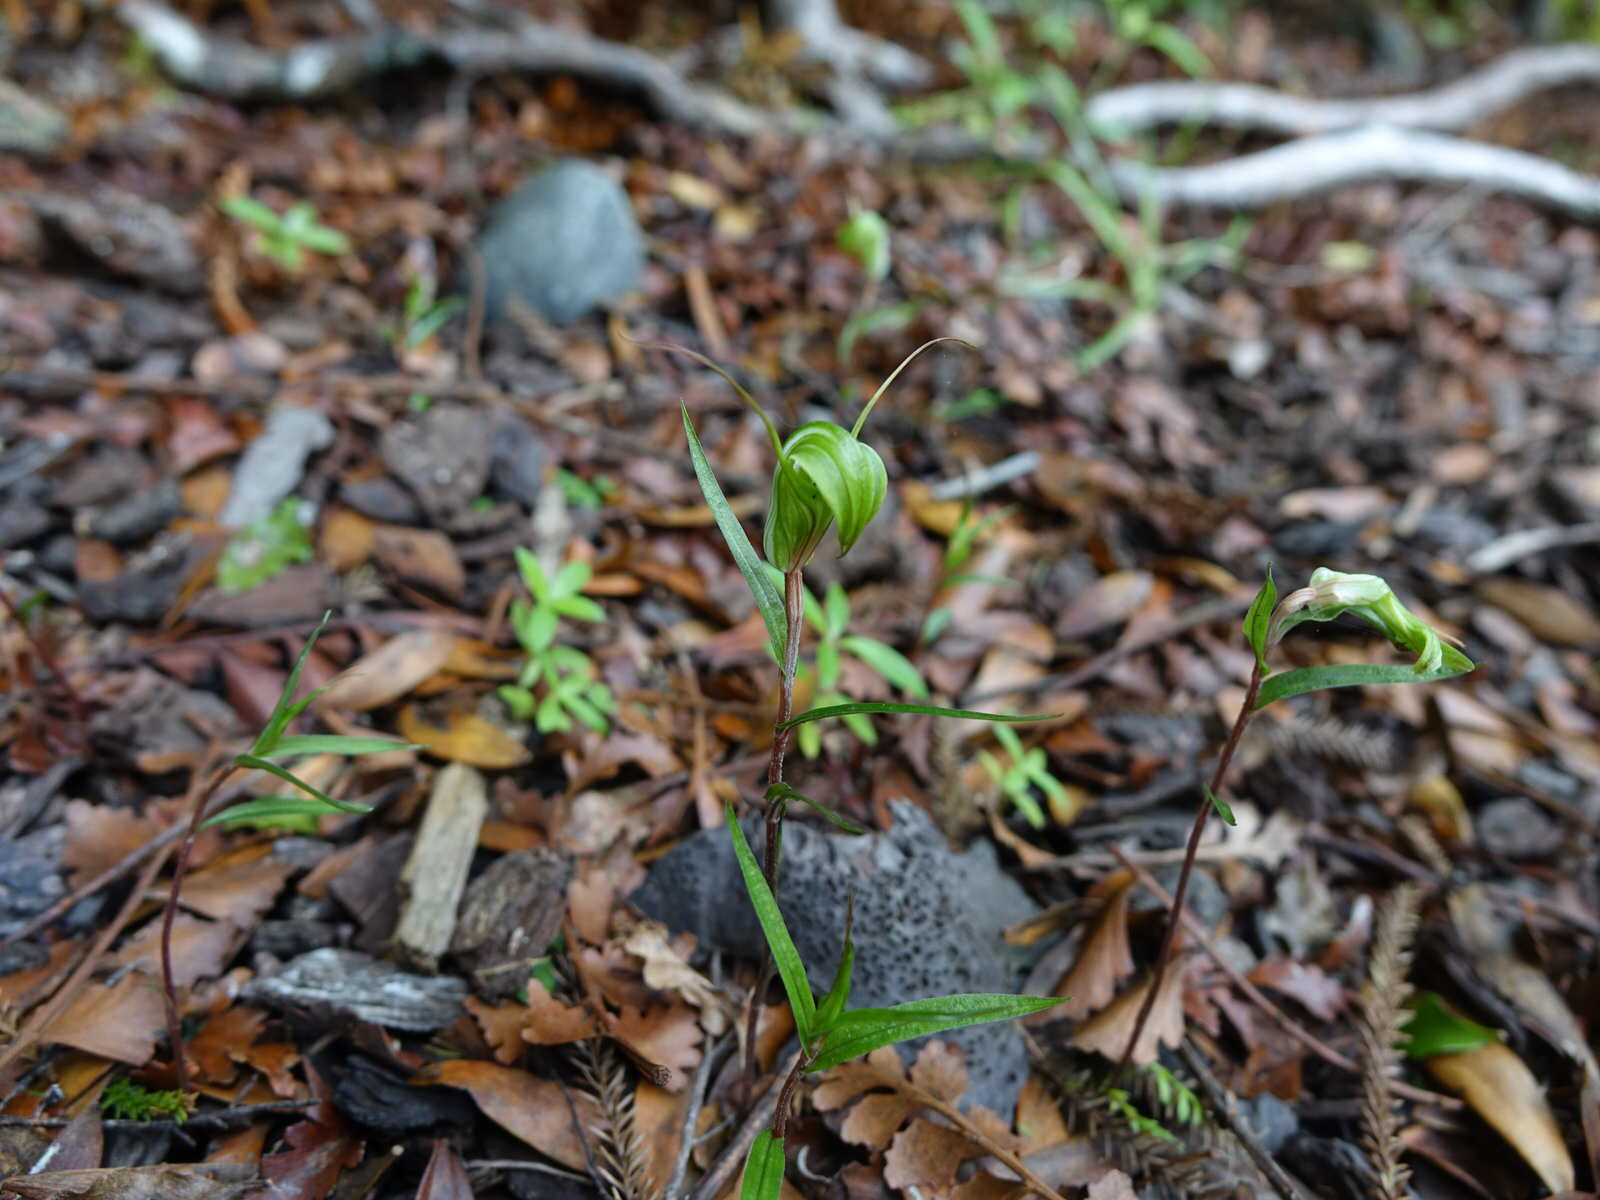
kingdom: Plantae
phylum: Tracheophyta
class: Liliopsida
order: Asparagales
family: Orchidaceae
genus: Pterostylis
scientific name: Pterostylis brumalis
